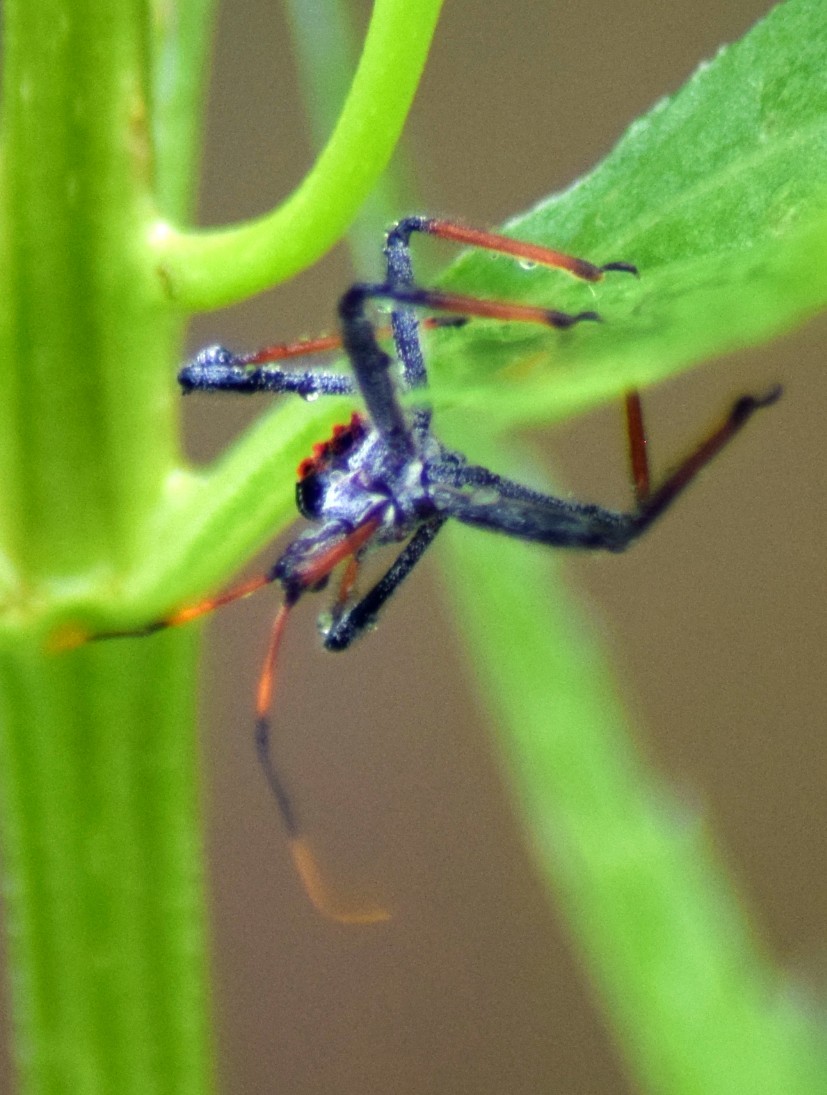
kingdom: Animalia
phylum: Arthropoda
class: Insecta
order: Hemiptera
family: Reduviidae
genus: Arilus
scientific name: Arilus cristatus
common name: North american wheel bug
